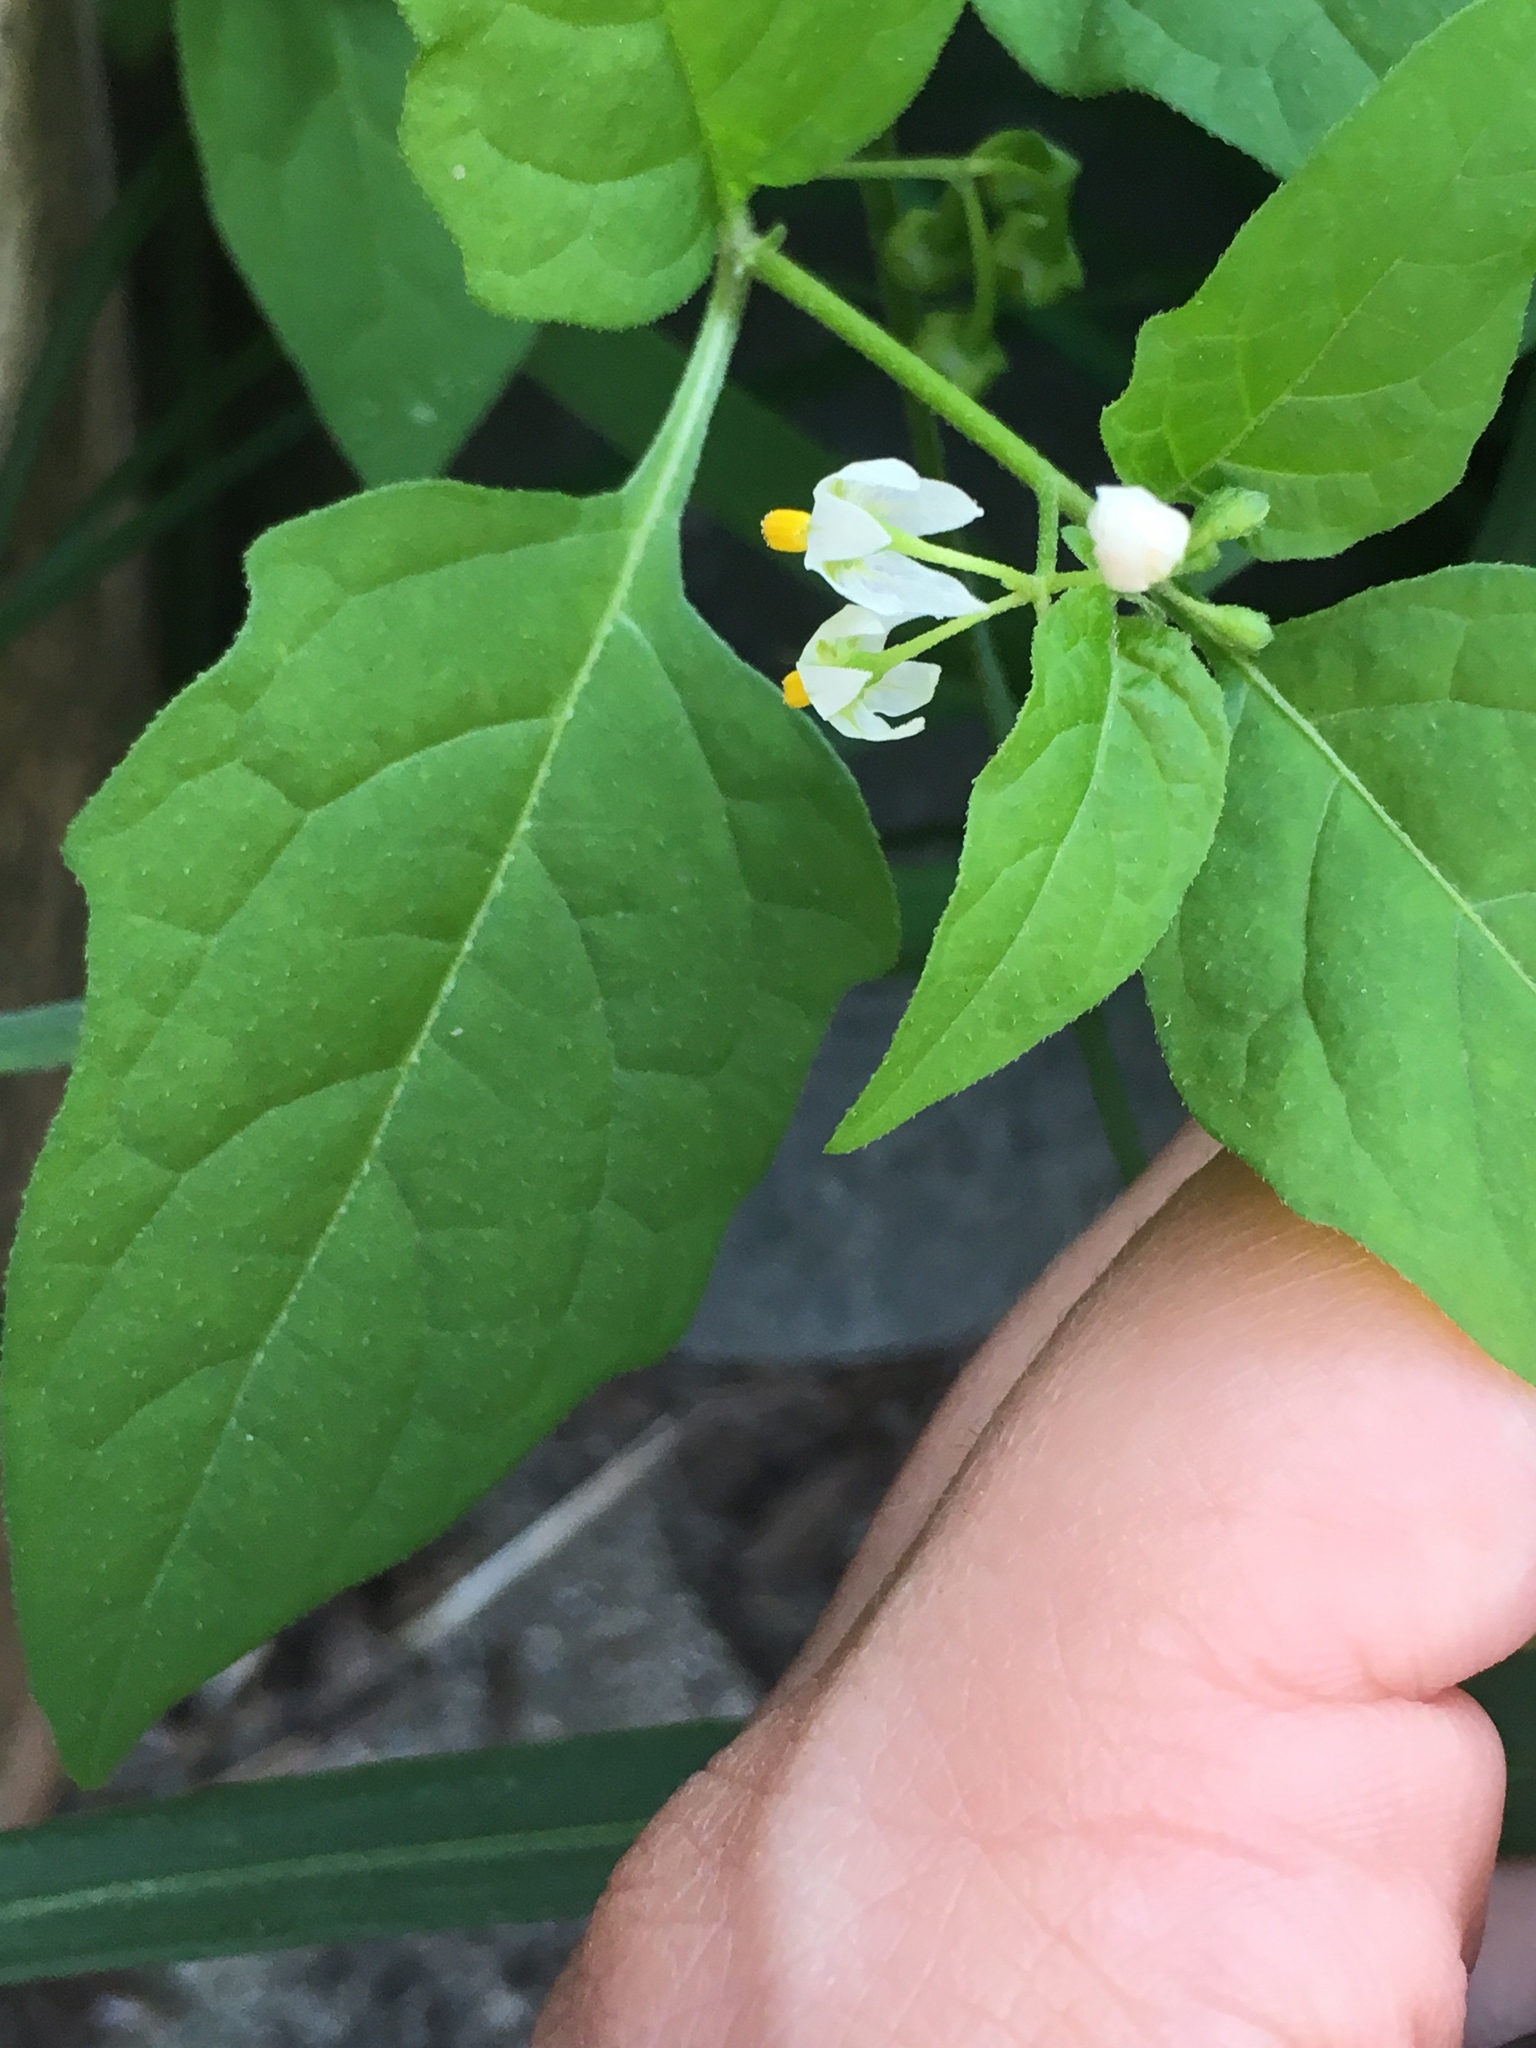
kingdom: Plantae
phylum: Tracheophyta
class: Magnoliopsida
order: Solanales
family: Solanaceae
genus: Solanum
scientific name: Solanum emulans
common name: Eastern black nightshade
